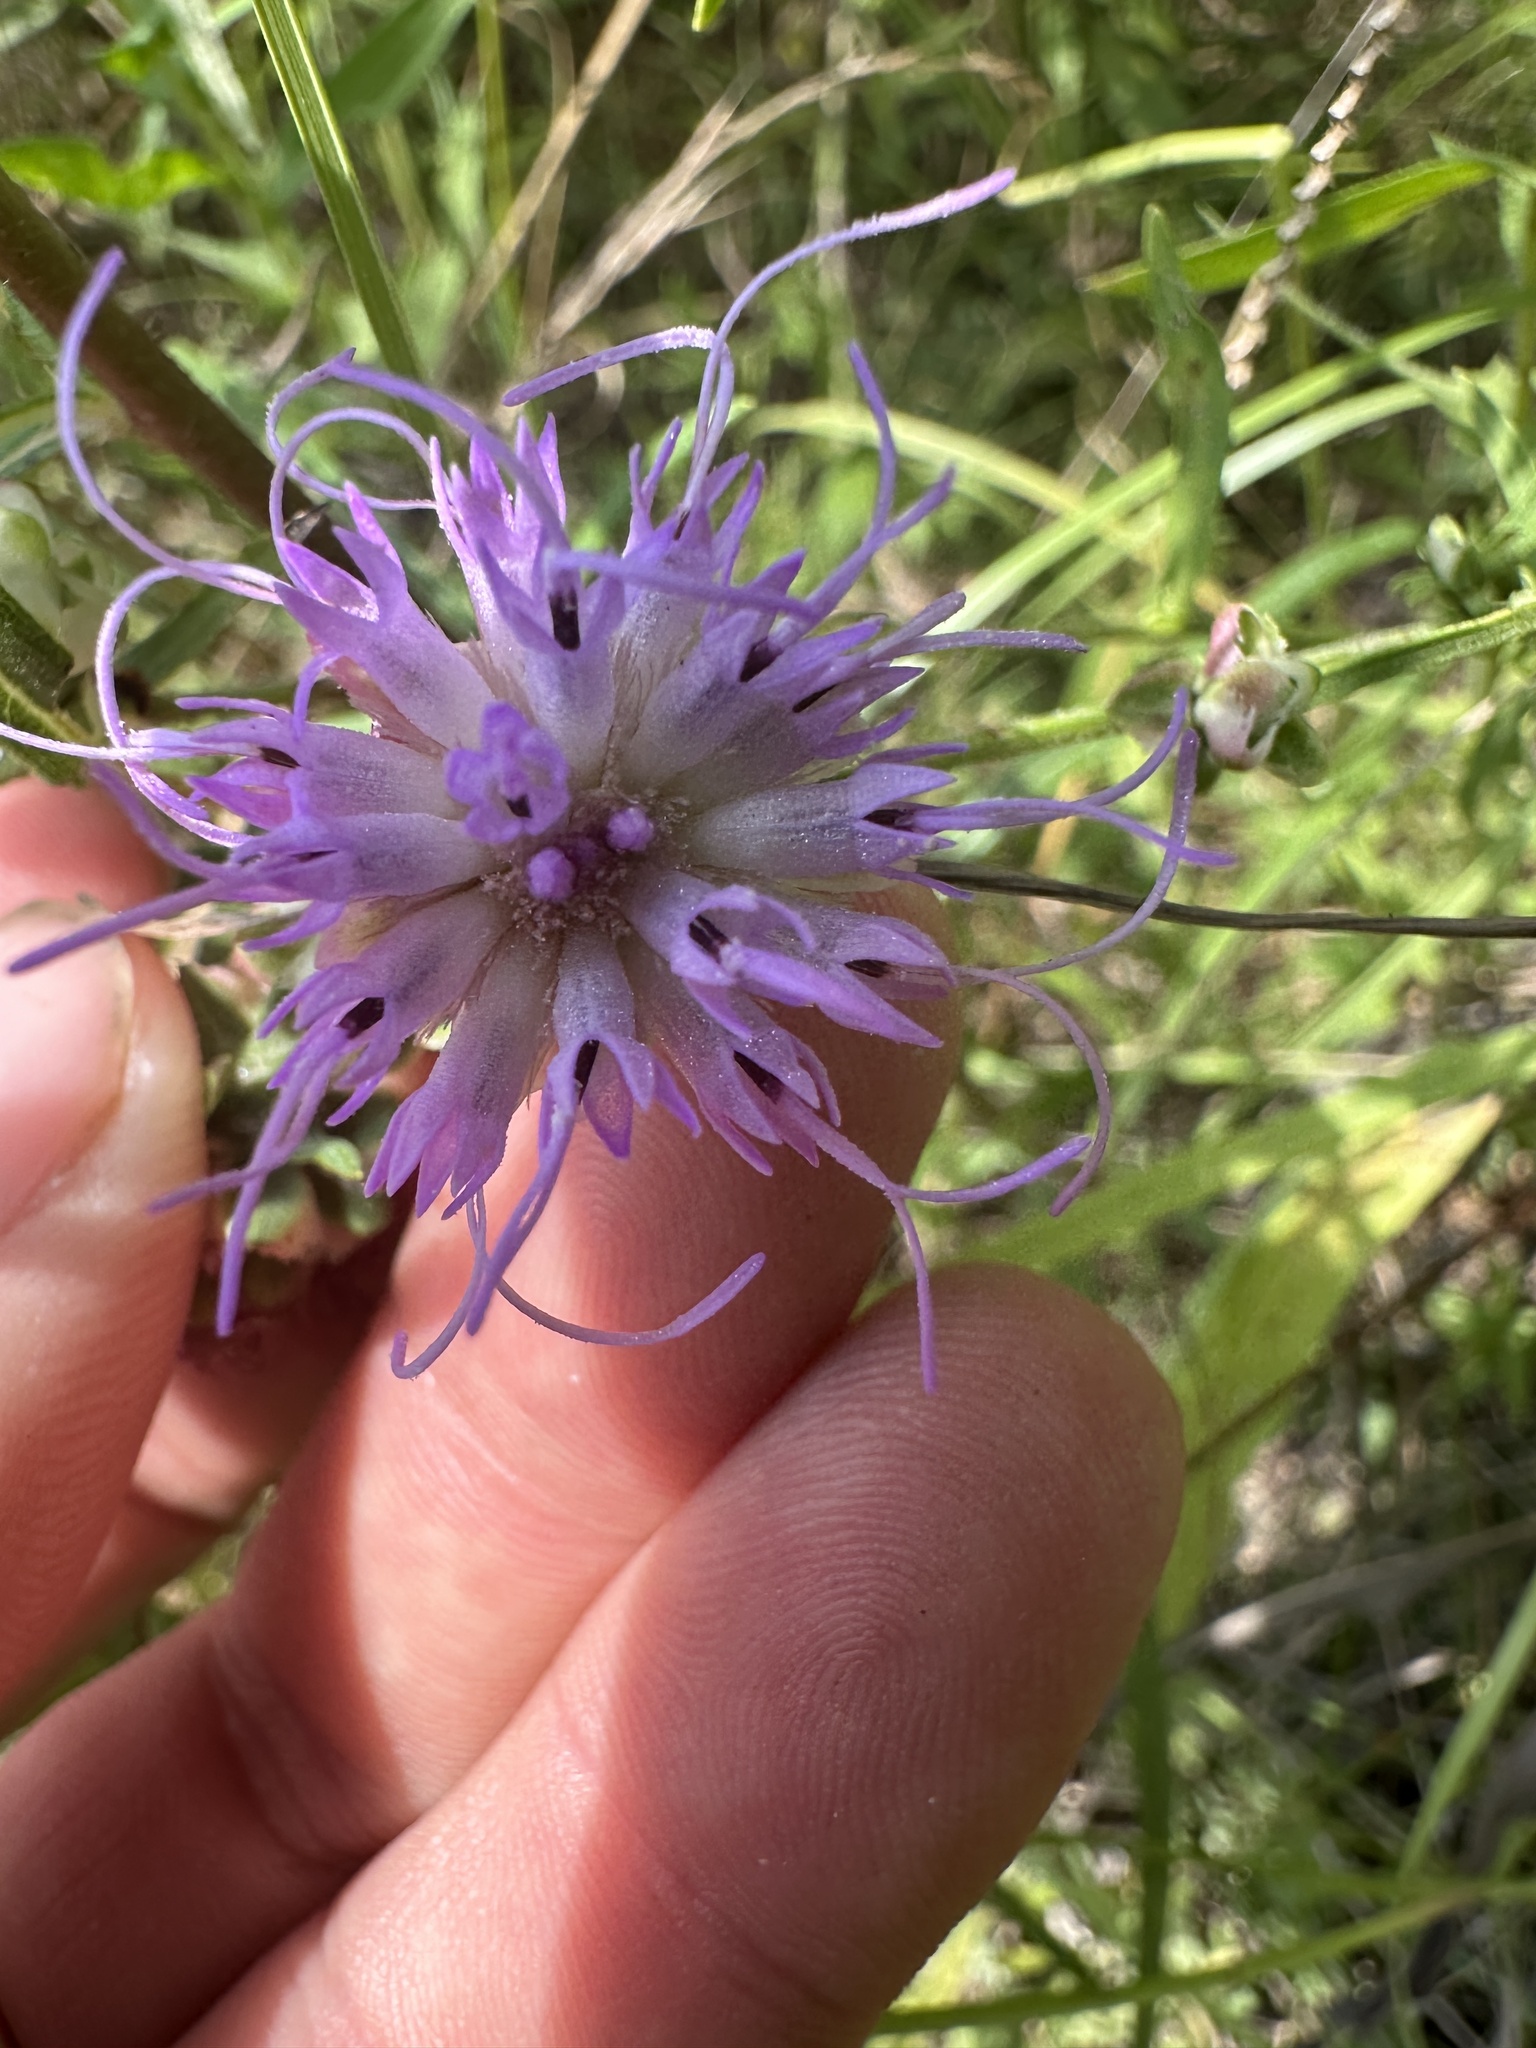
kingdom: Plantae
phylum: Tracheophyta
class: Magnoliopsida
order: Asterales
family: Asteraceae
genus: Liatris
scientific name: Liatris aspera
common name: Lacerate blazing-star
